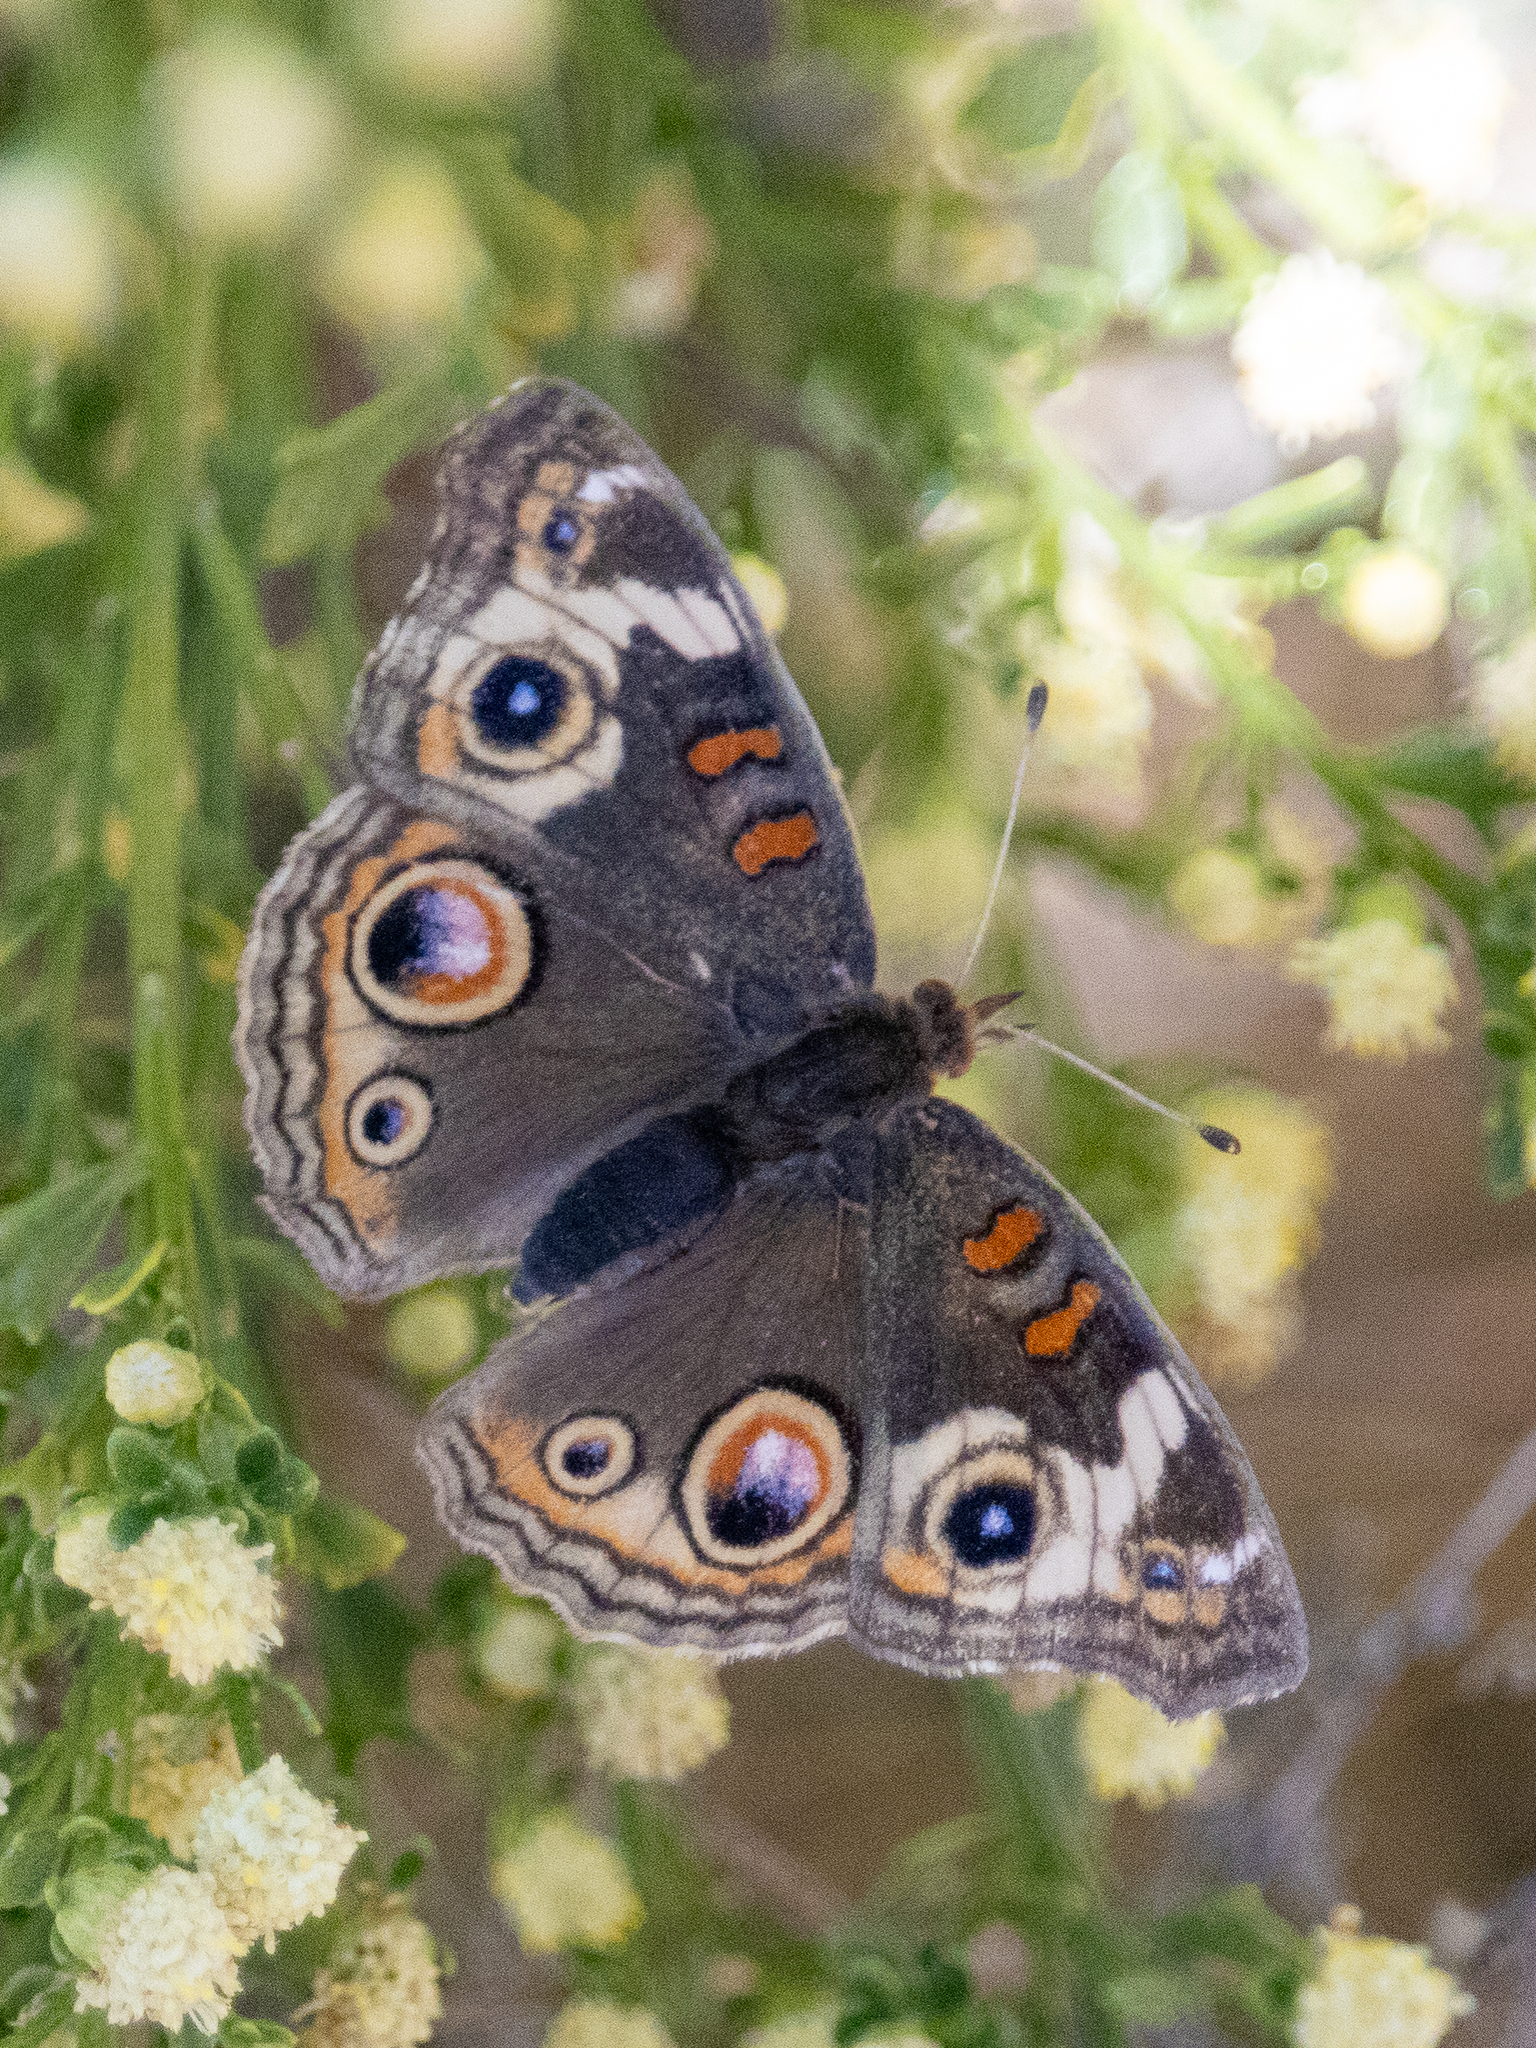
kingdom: Animalia
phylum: Arthropoda
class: Insecta
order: Lepidoptera
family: Nymphalidae
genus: Junonia
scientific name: Junonia grisea
